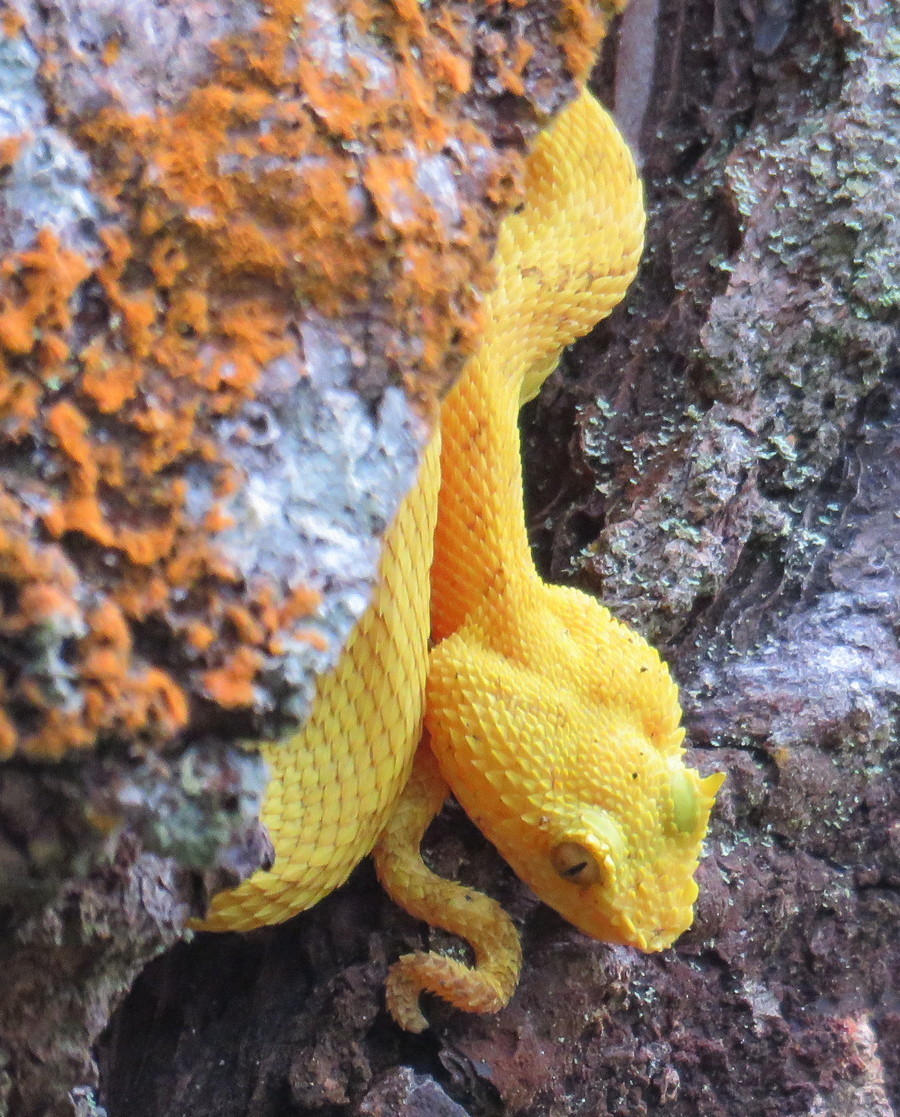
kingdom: Animalia
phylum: Chordata
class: Squamata
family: Viperidae
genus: Bothriechis
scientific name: Bothriechis schlegelii
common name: Eyelash viper
